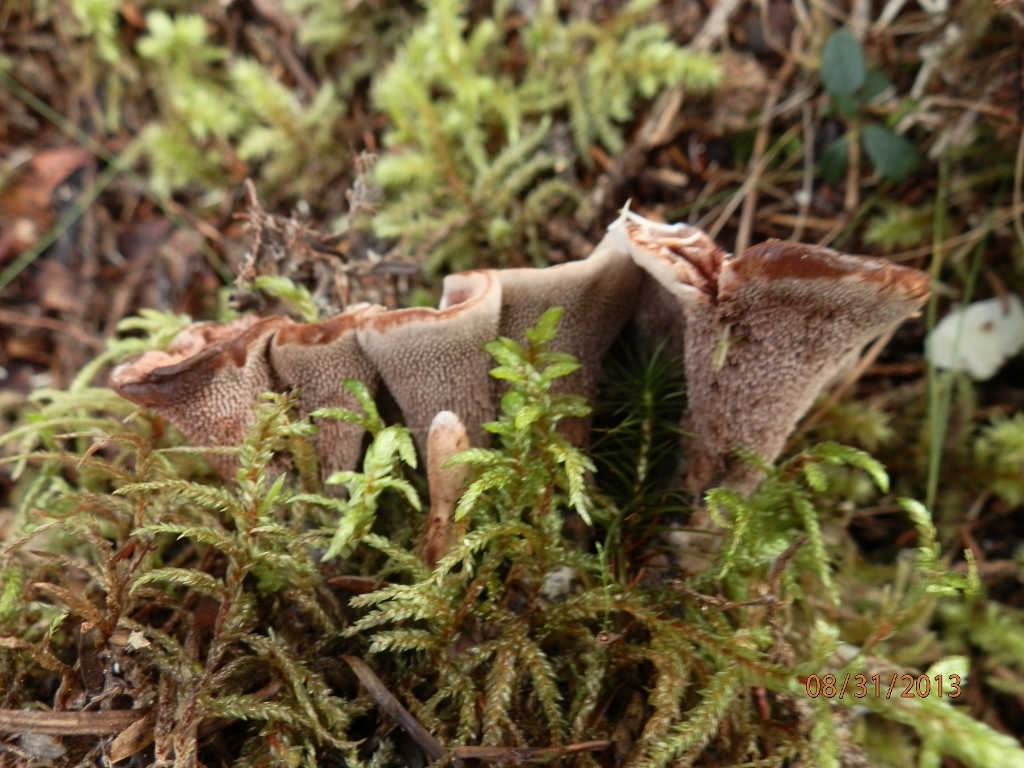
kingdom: Fungi
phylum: Basidiomycota
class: Agaricomycetes
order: Thelephorales
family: Bankeraceae
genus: Hydnellum
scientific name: Hydnellum scrobiculatum
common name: Ridged tooth
